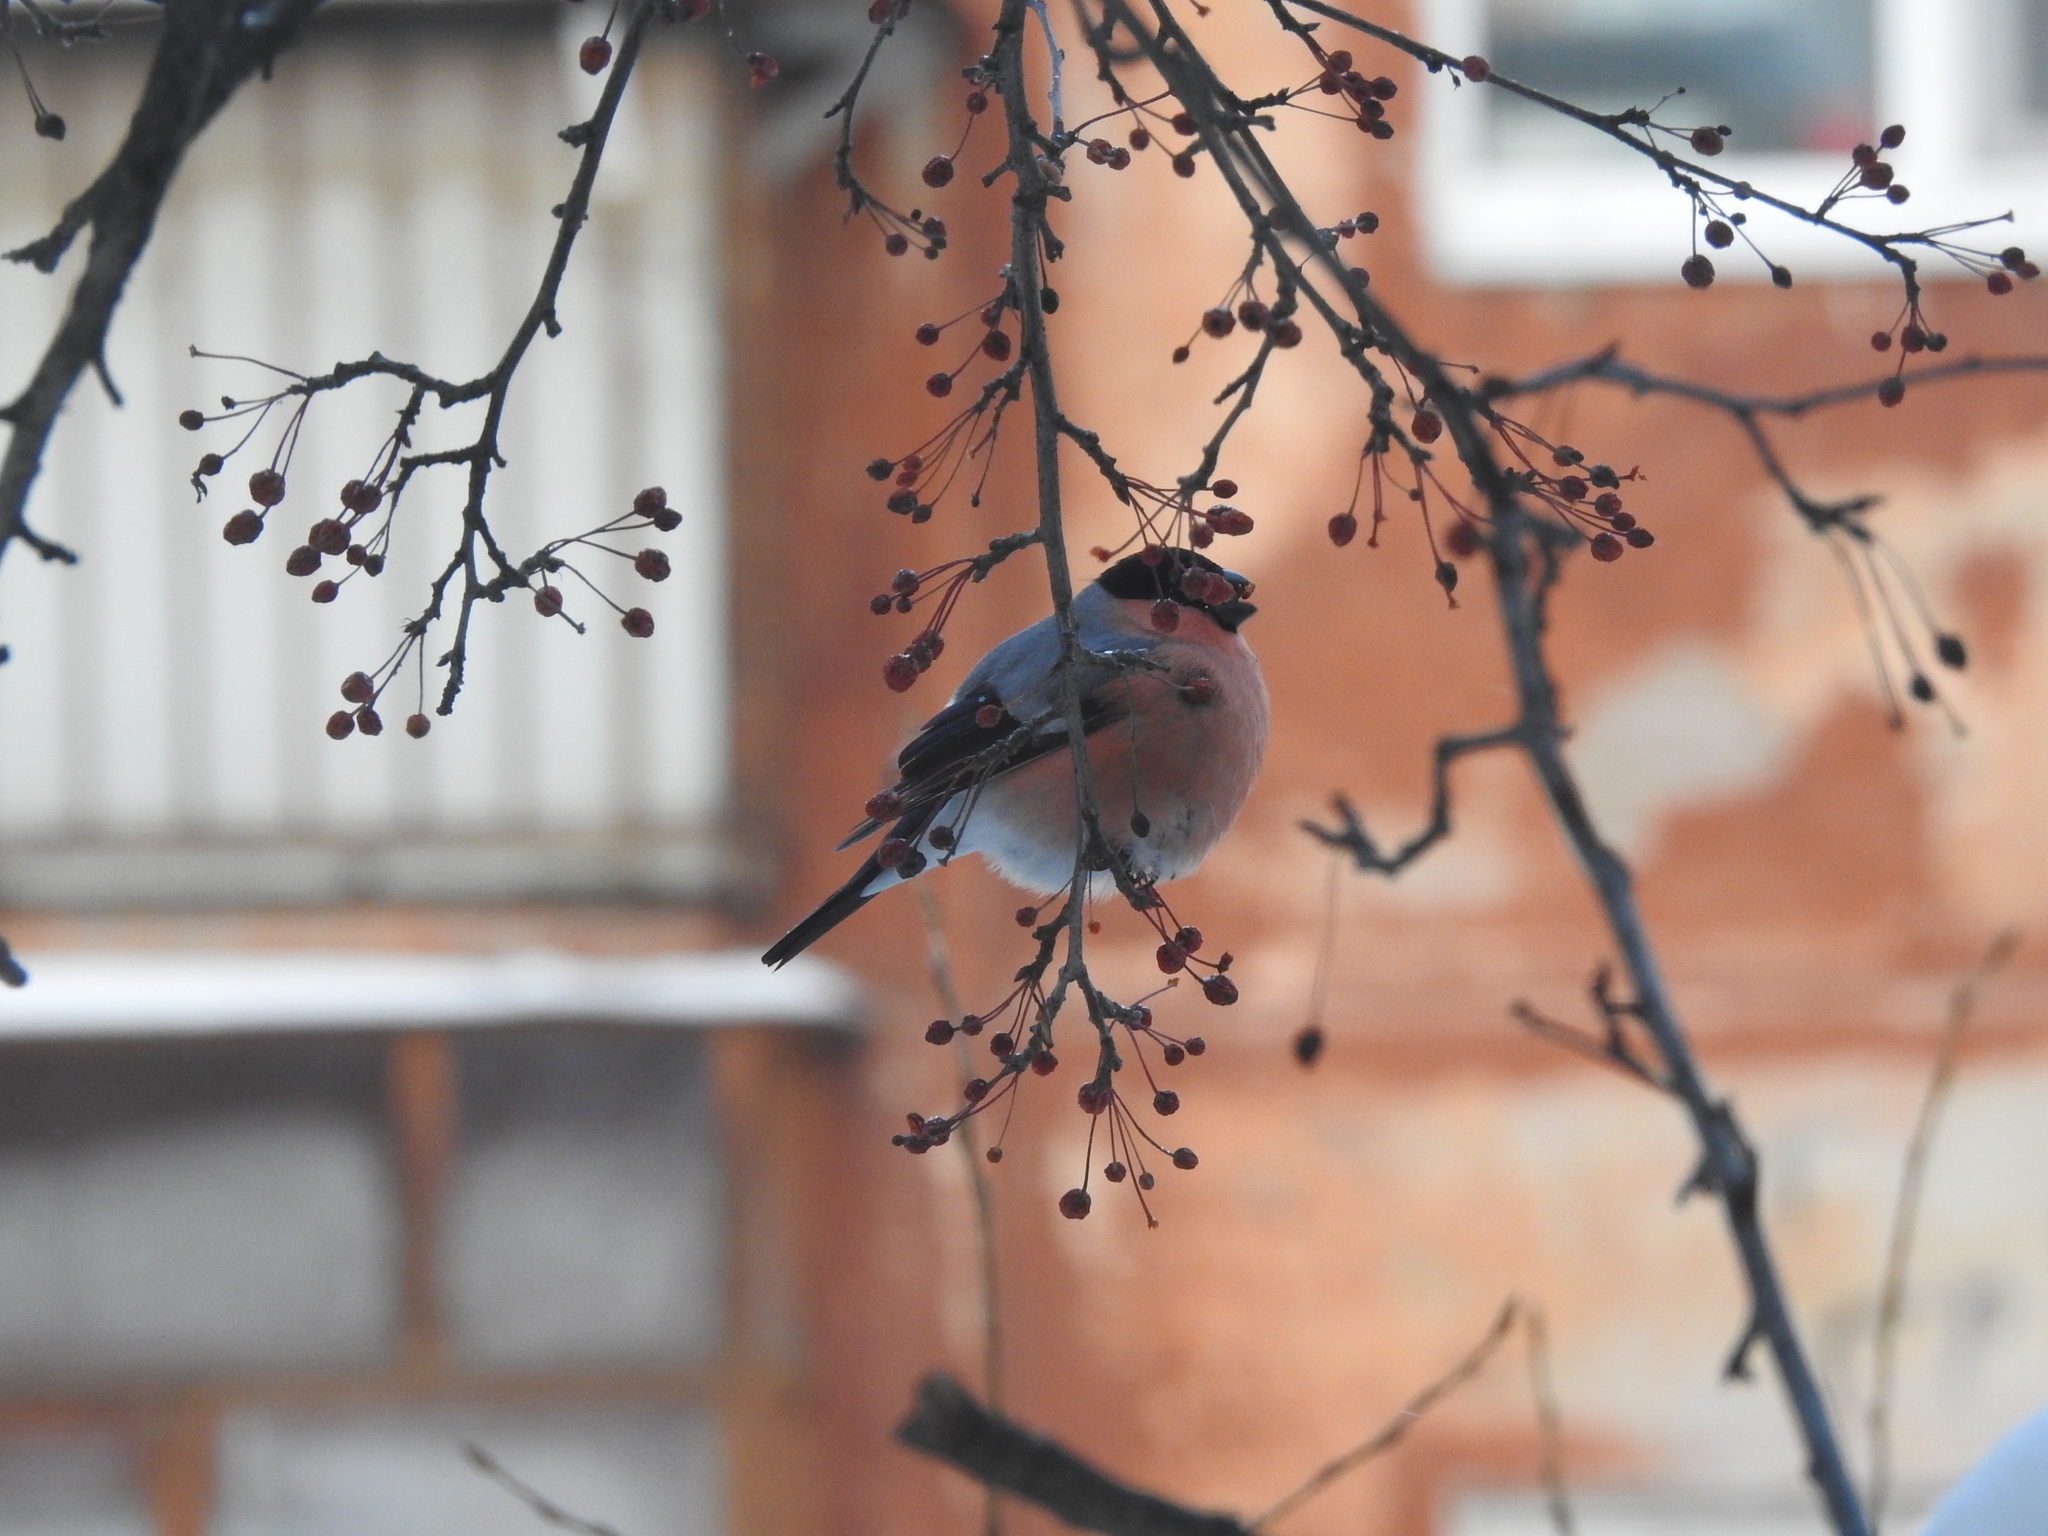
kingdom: Animalia
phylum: Chordata
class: Aves
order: Passeriformes
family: Fringillidae
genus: Pyrrhula
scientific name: Pyrrhula pyrrhula
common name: Eurasian bullfinch
